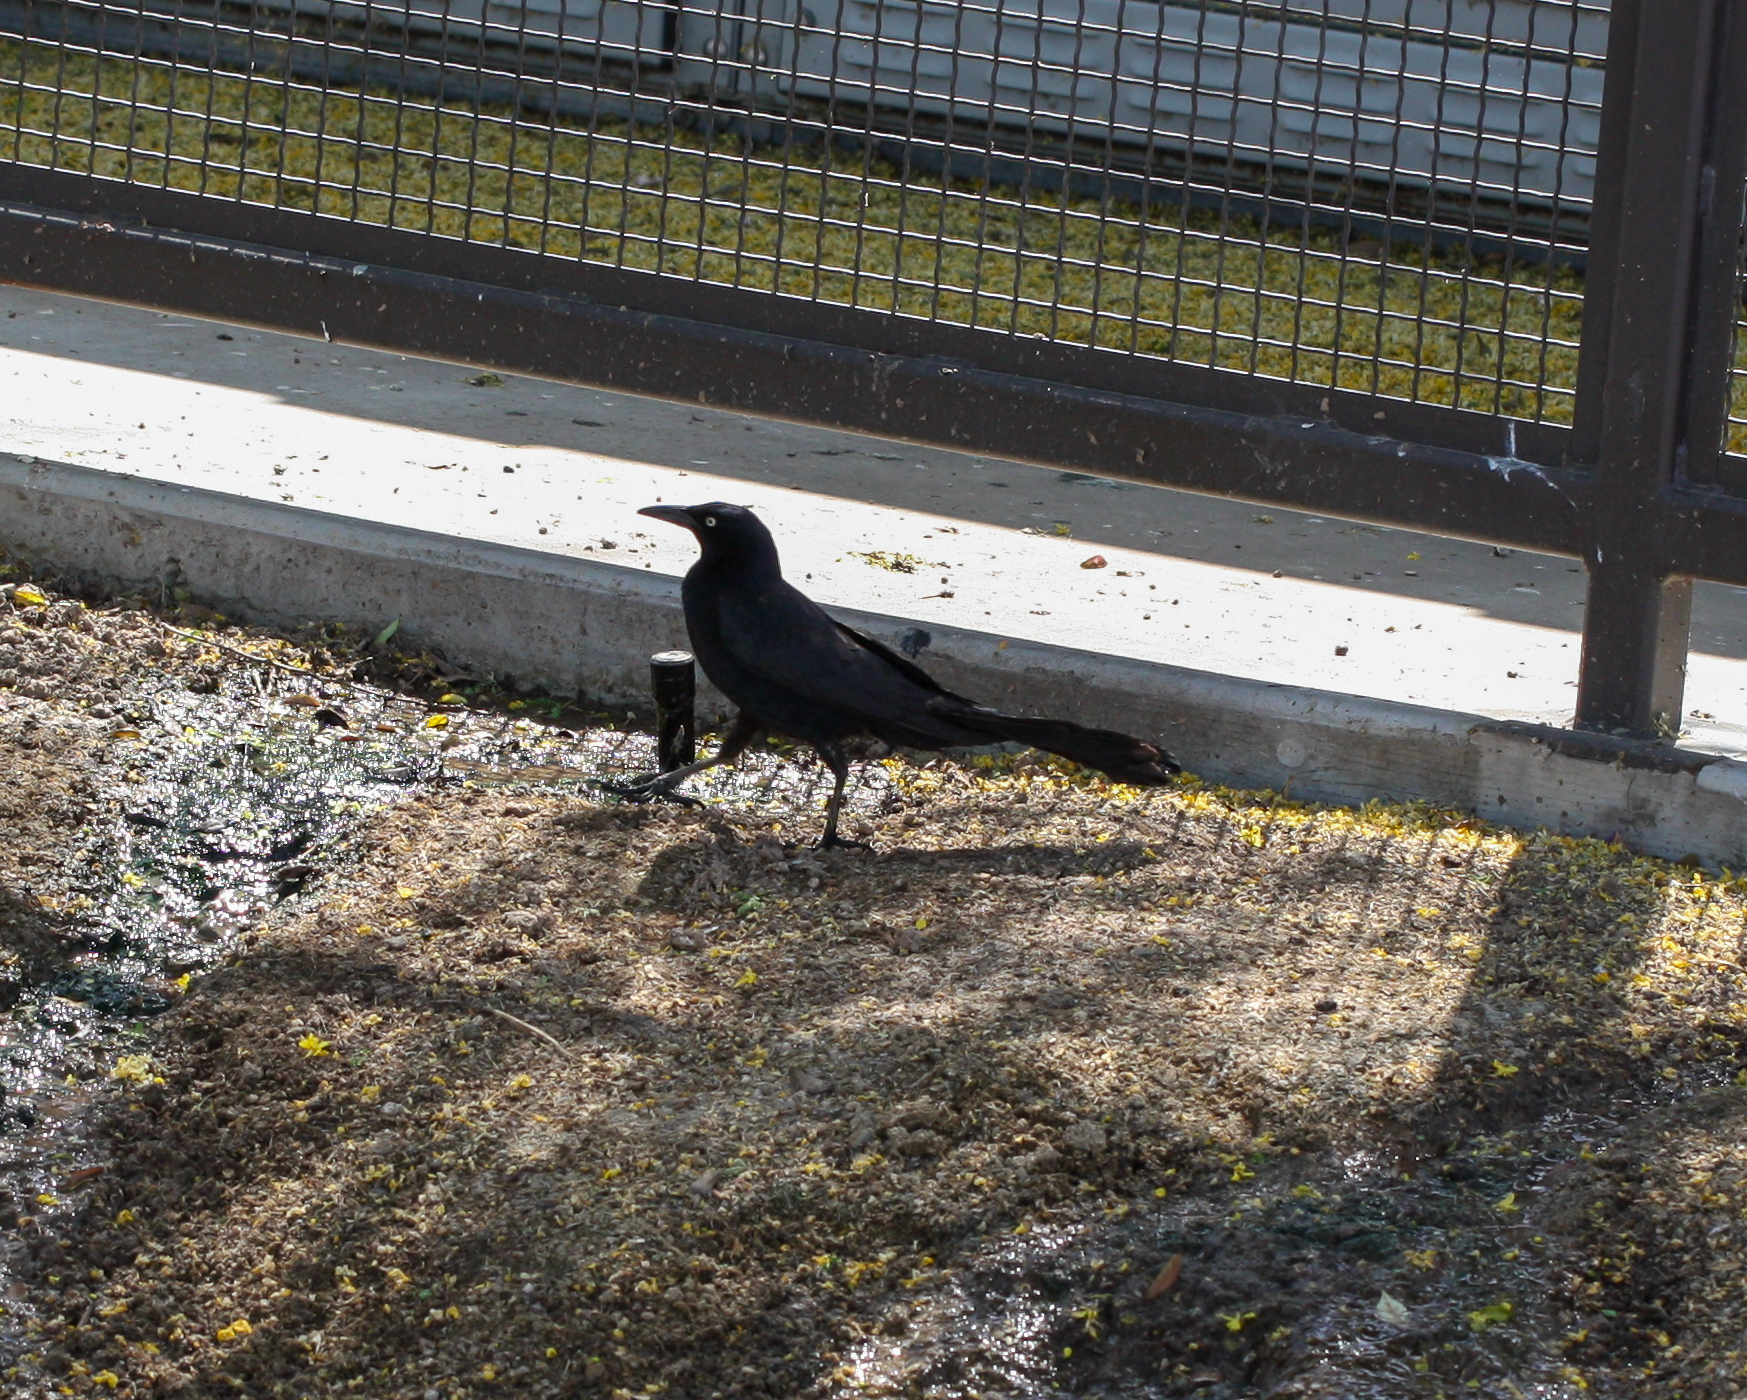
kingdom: Animalia
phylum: Chordata
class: Aves
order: Passeriformes
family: Icteridae
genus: Quiscalus
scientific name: Quiscalus mexicanus
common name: Great-tailed grackle
